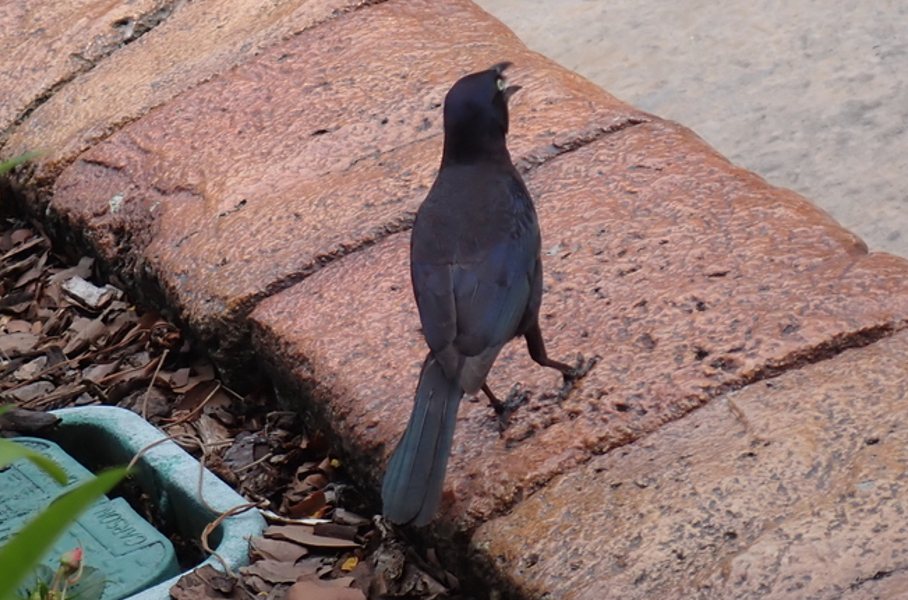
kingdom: Animalia
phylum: Chordata
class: Aves
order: Passeriformes
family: Icteridae
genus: Quiscalus
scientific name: Quiscalus quiscula
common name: Common grackle
